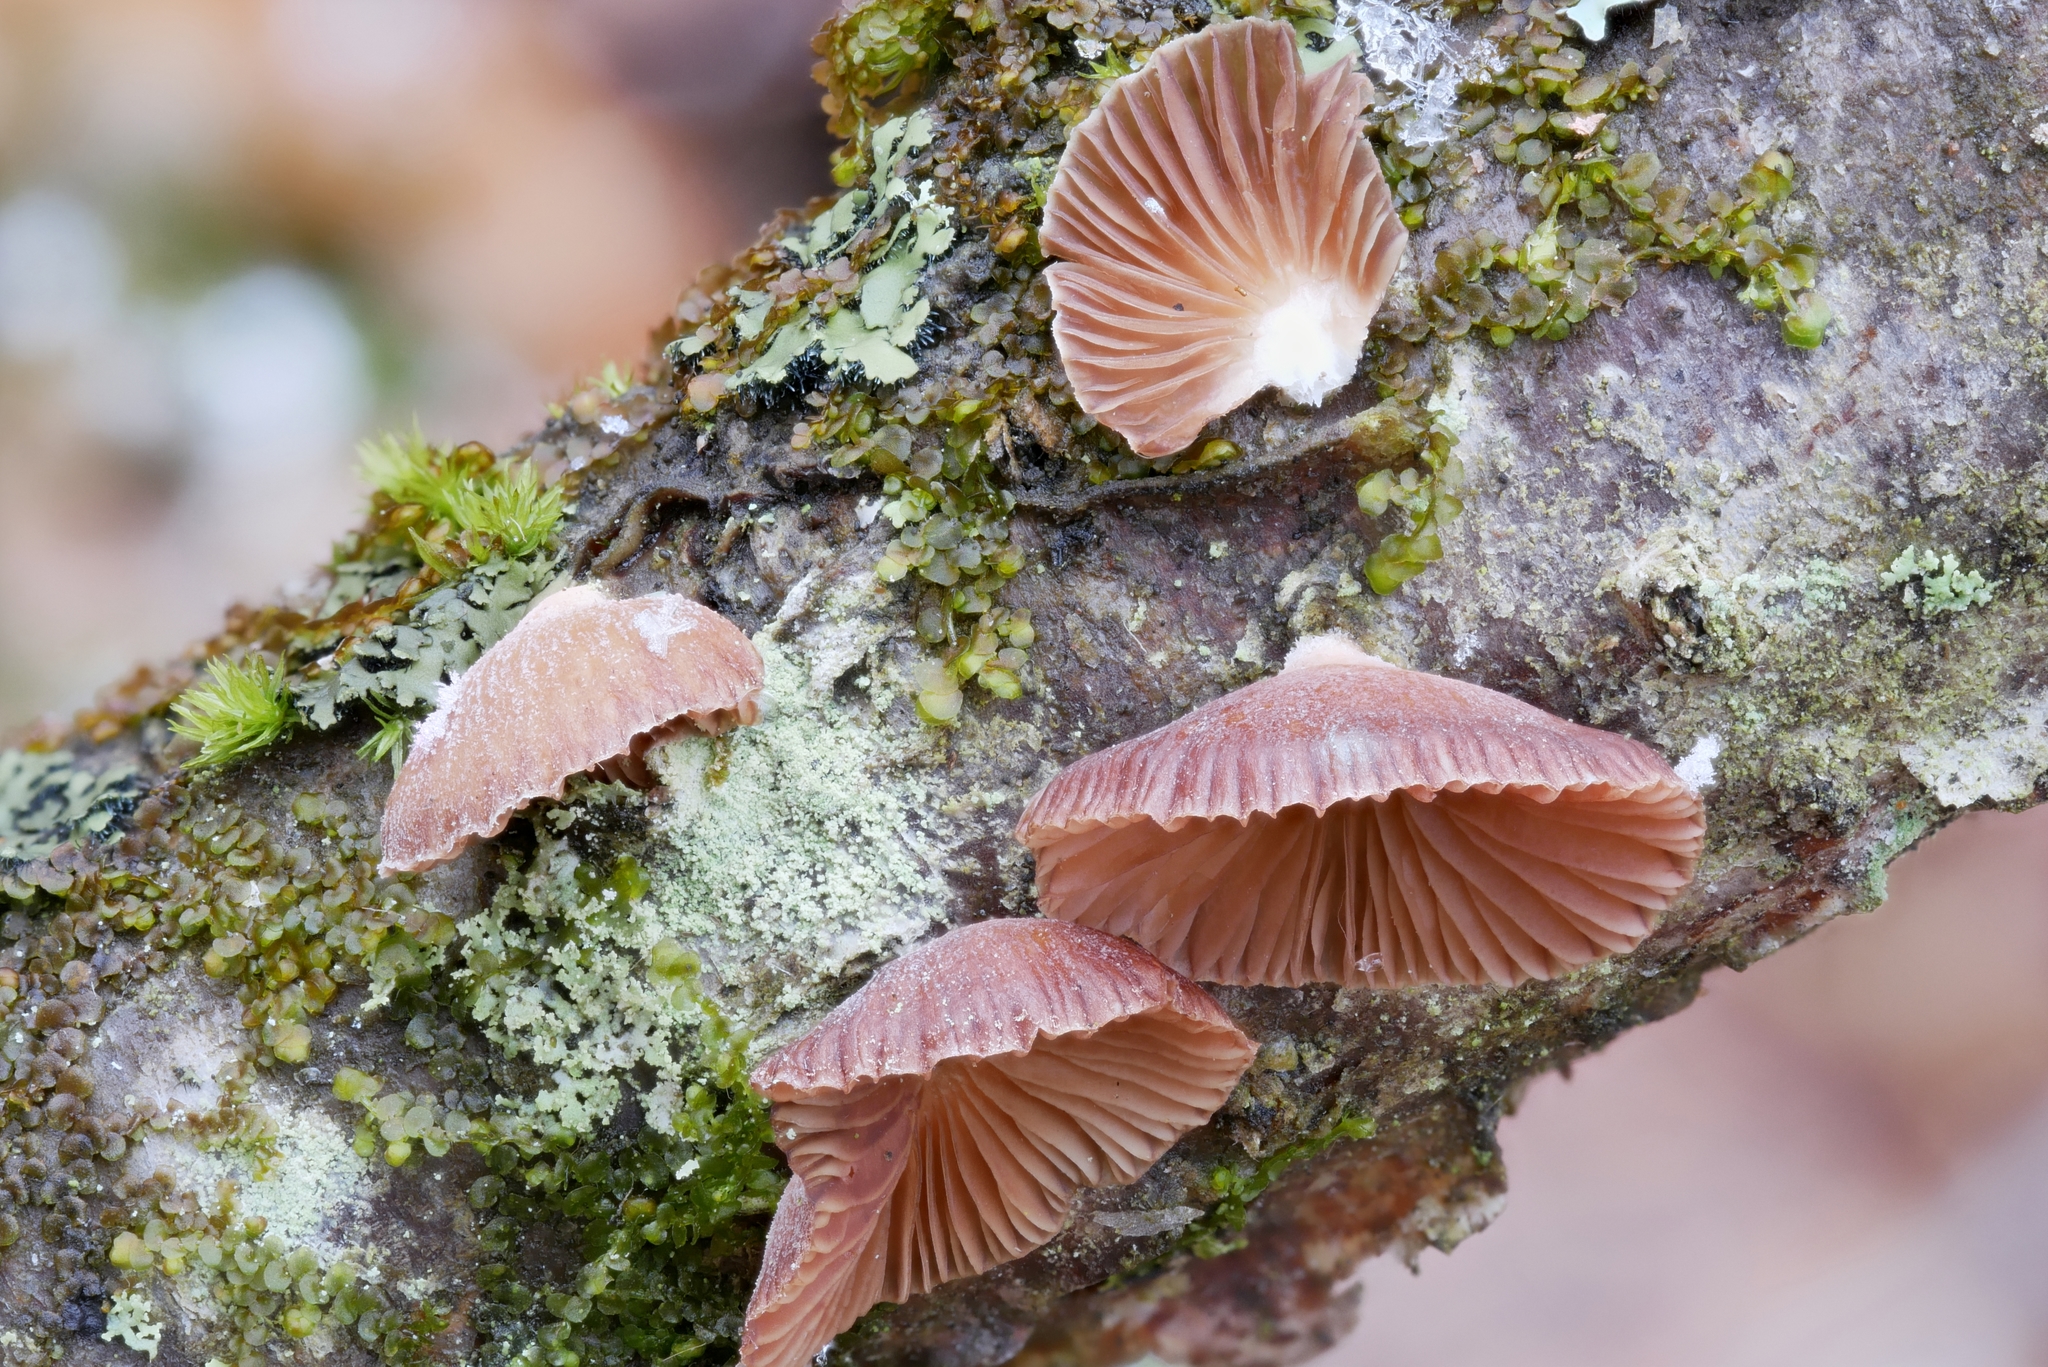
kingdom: Fungi
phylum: Basidiomycota
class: Agaricomycetes
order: Agaricales
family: Mycenaceae
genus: Panellus
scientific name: Panellus ringens
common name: Winter oysterling
